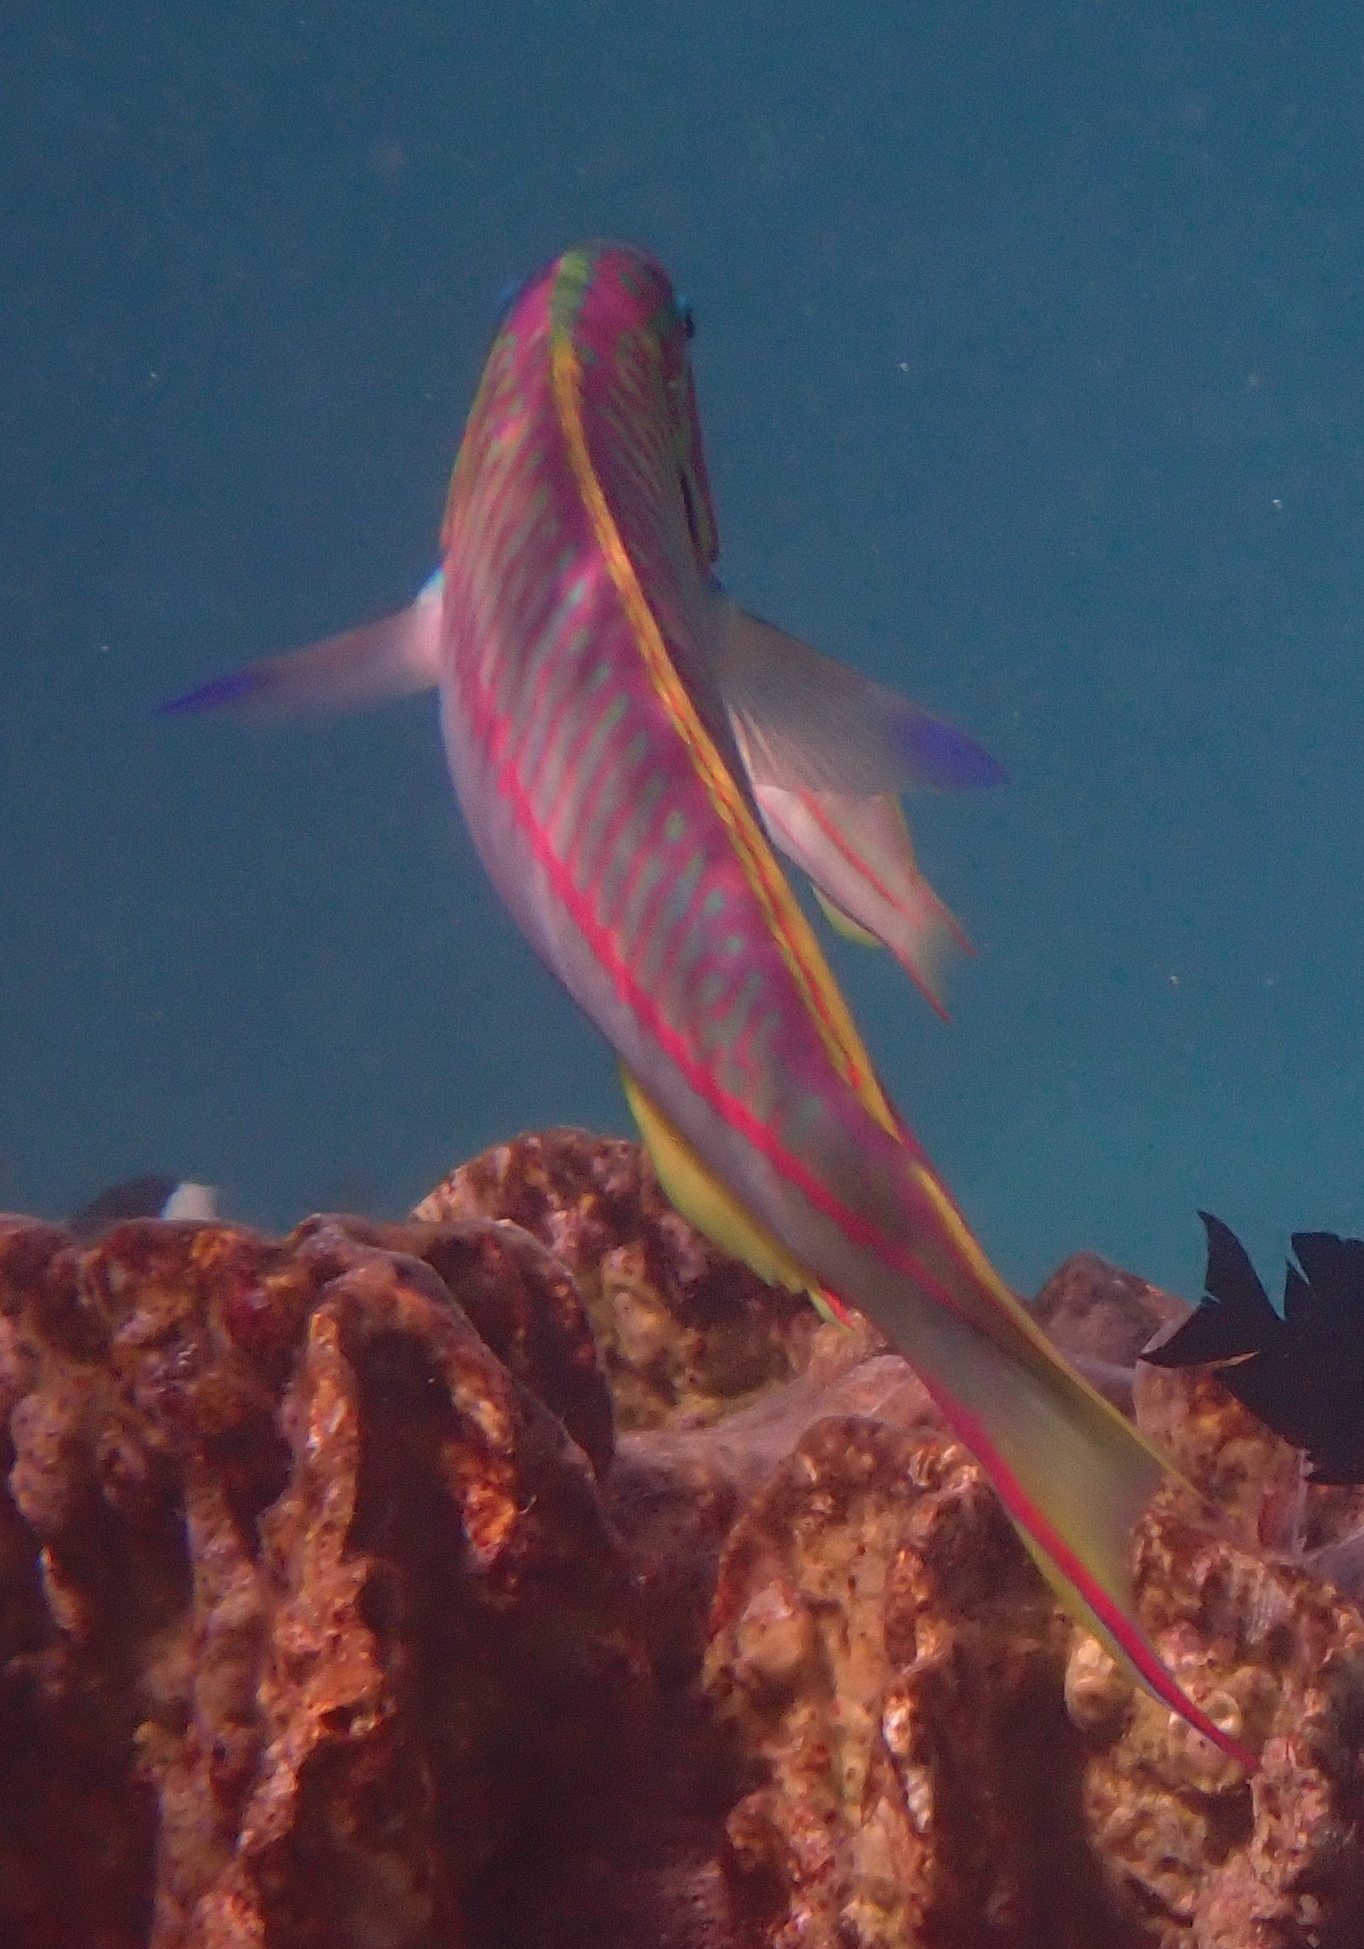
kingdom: Animalia
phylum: Chordata
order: Perciformes
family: Labridae
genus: Thalassoma
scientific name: Thalassoma rueppellii
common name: Klunzinger's wrasse
